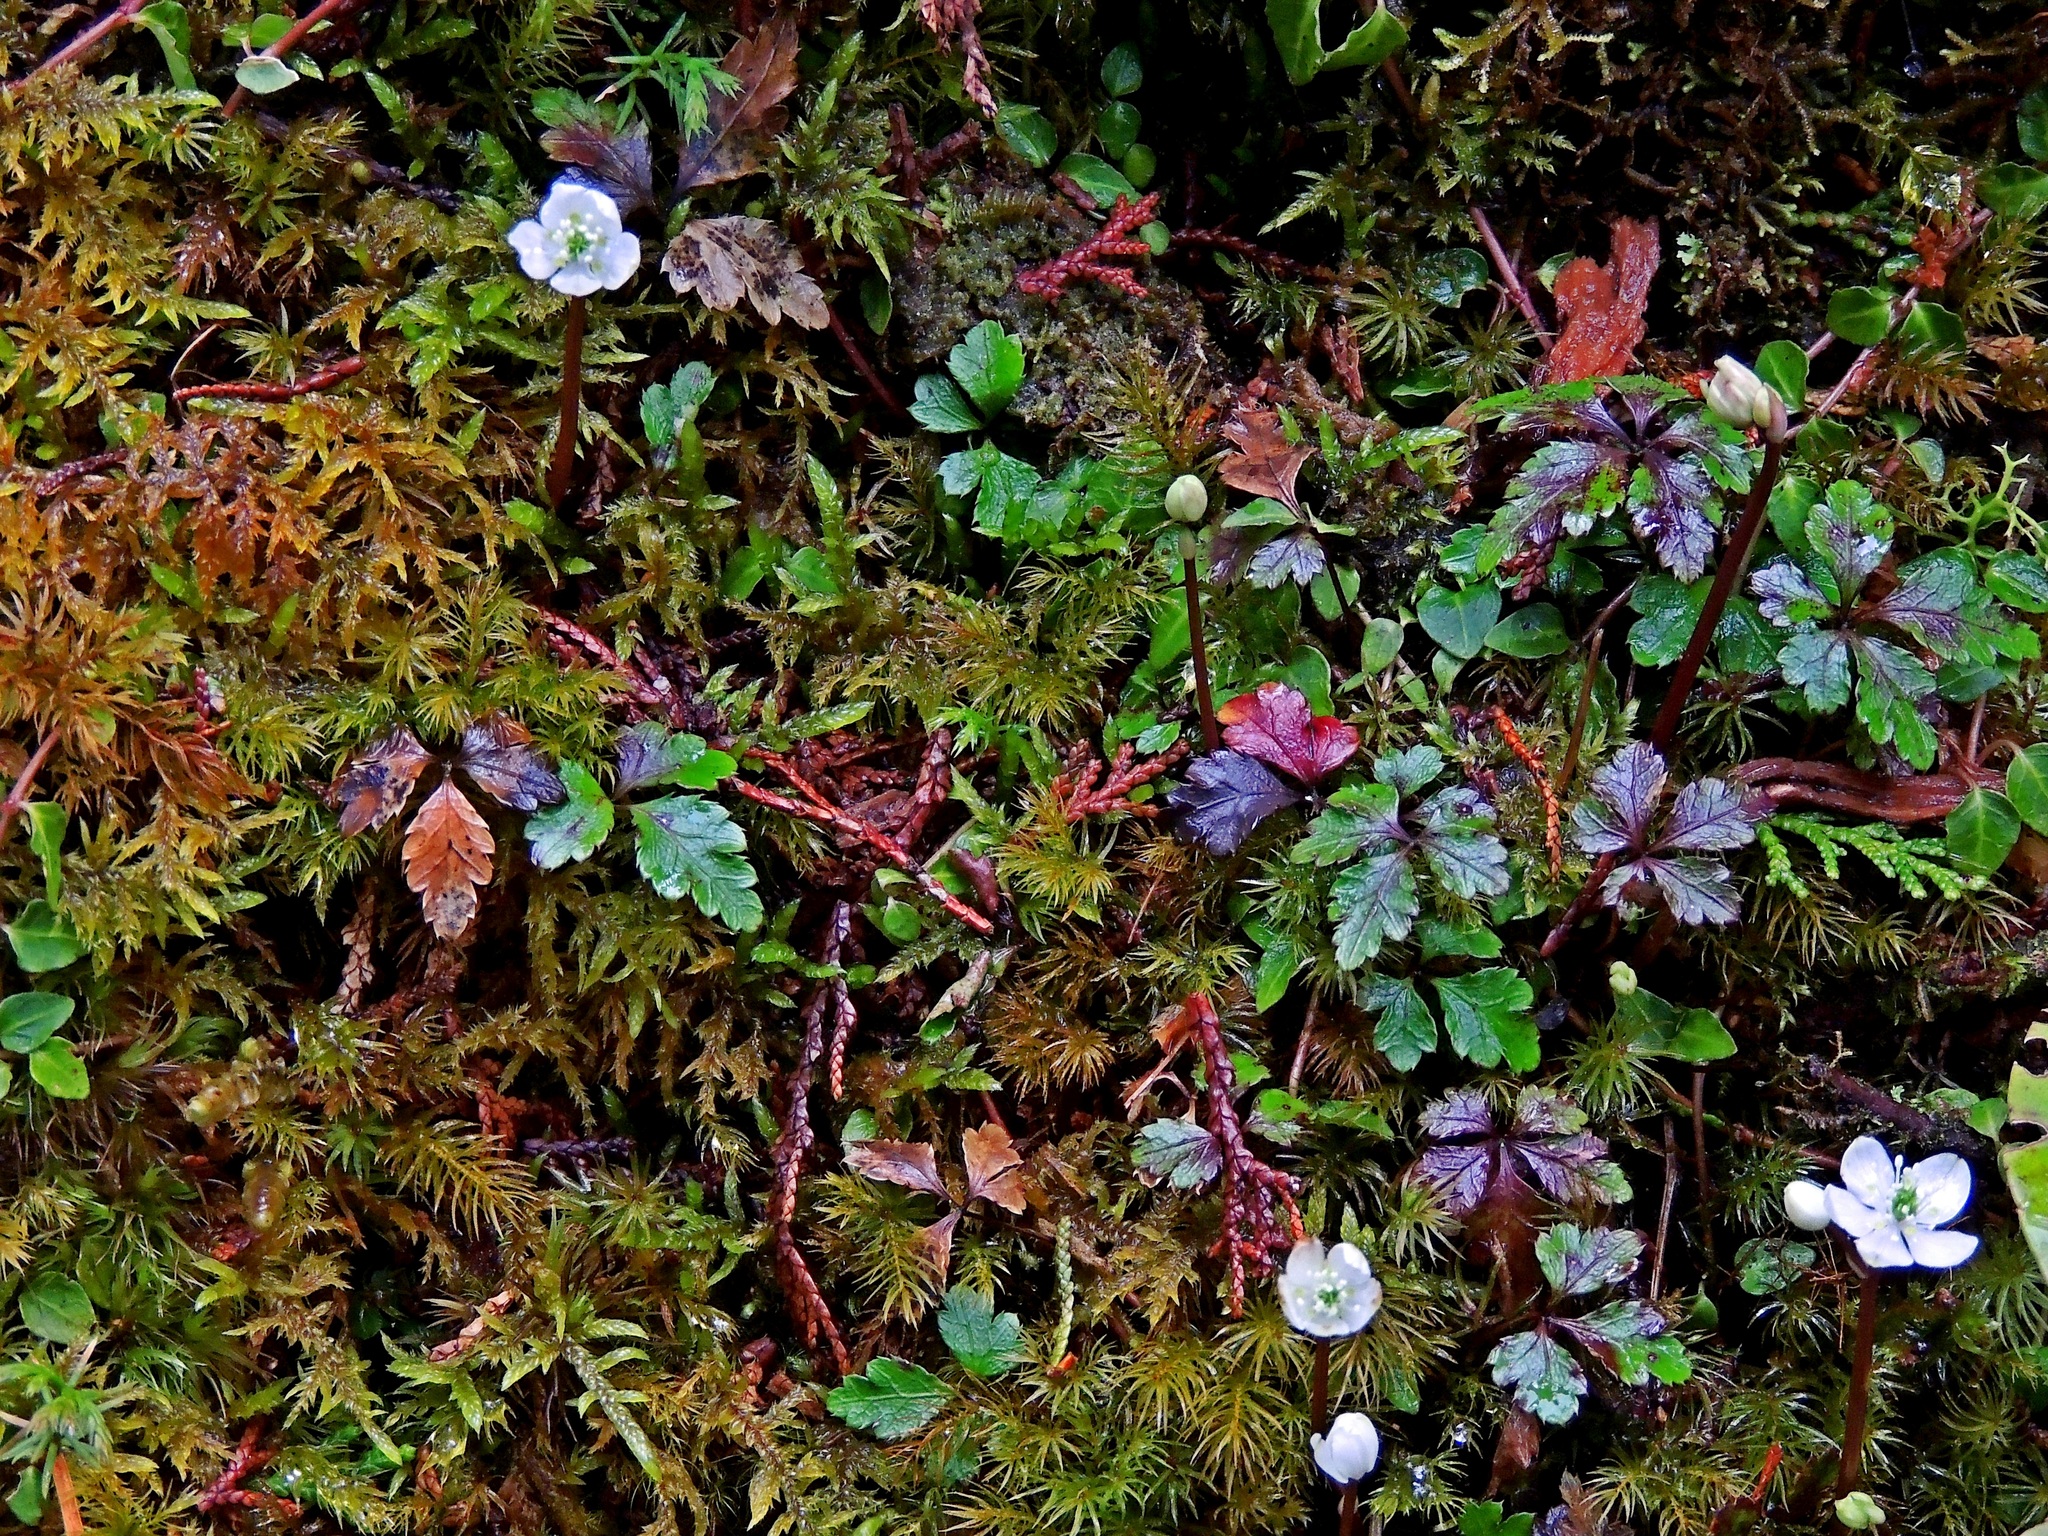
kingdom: Plantae
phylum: Tracheophyta
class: Magnoliopsida
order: Ranunculales
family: Ranunculaceae
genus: Coptis
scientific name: Coptis quinquefolia
